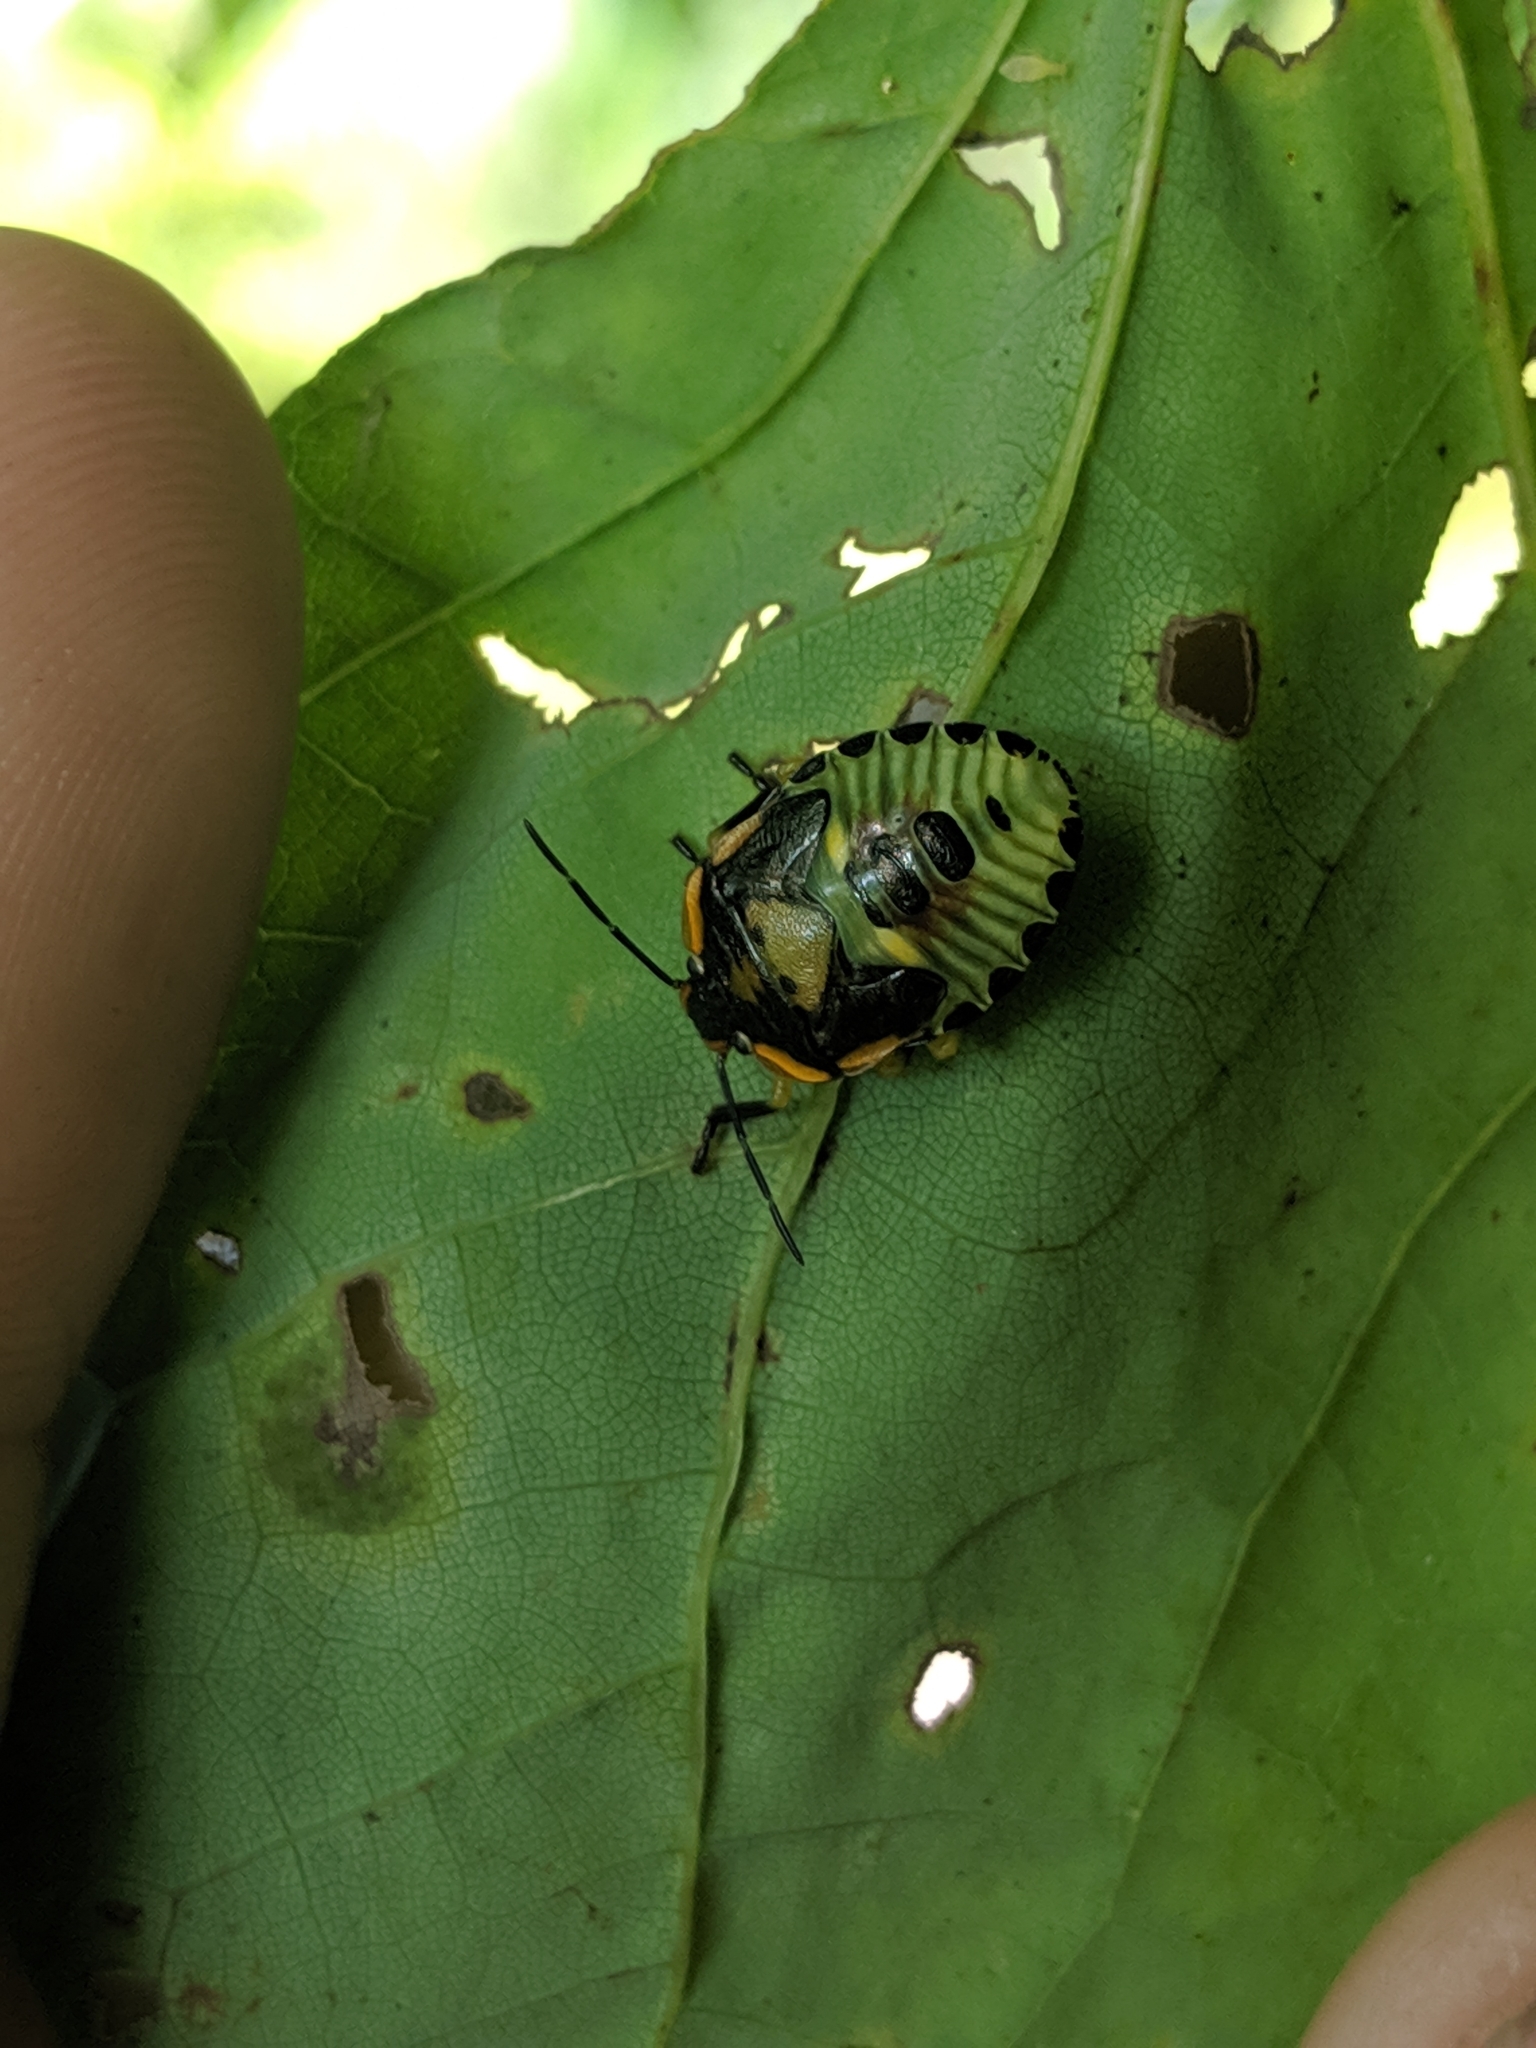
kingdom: Animalia
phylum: Arthropoda
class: Insecta
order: Hemiptera
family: Pentatomidae
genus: Chinavia
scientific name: Chinavia hilaris
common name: Green stink bug
